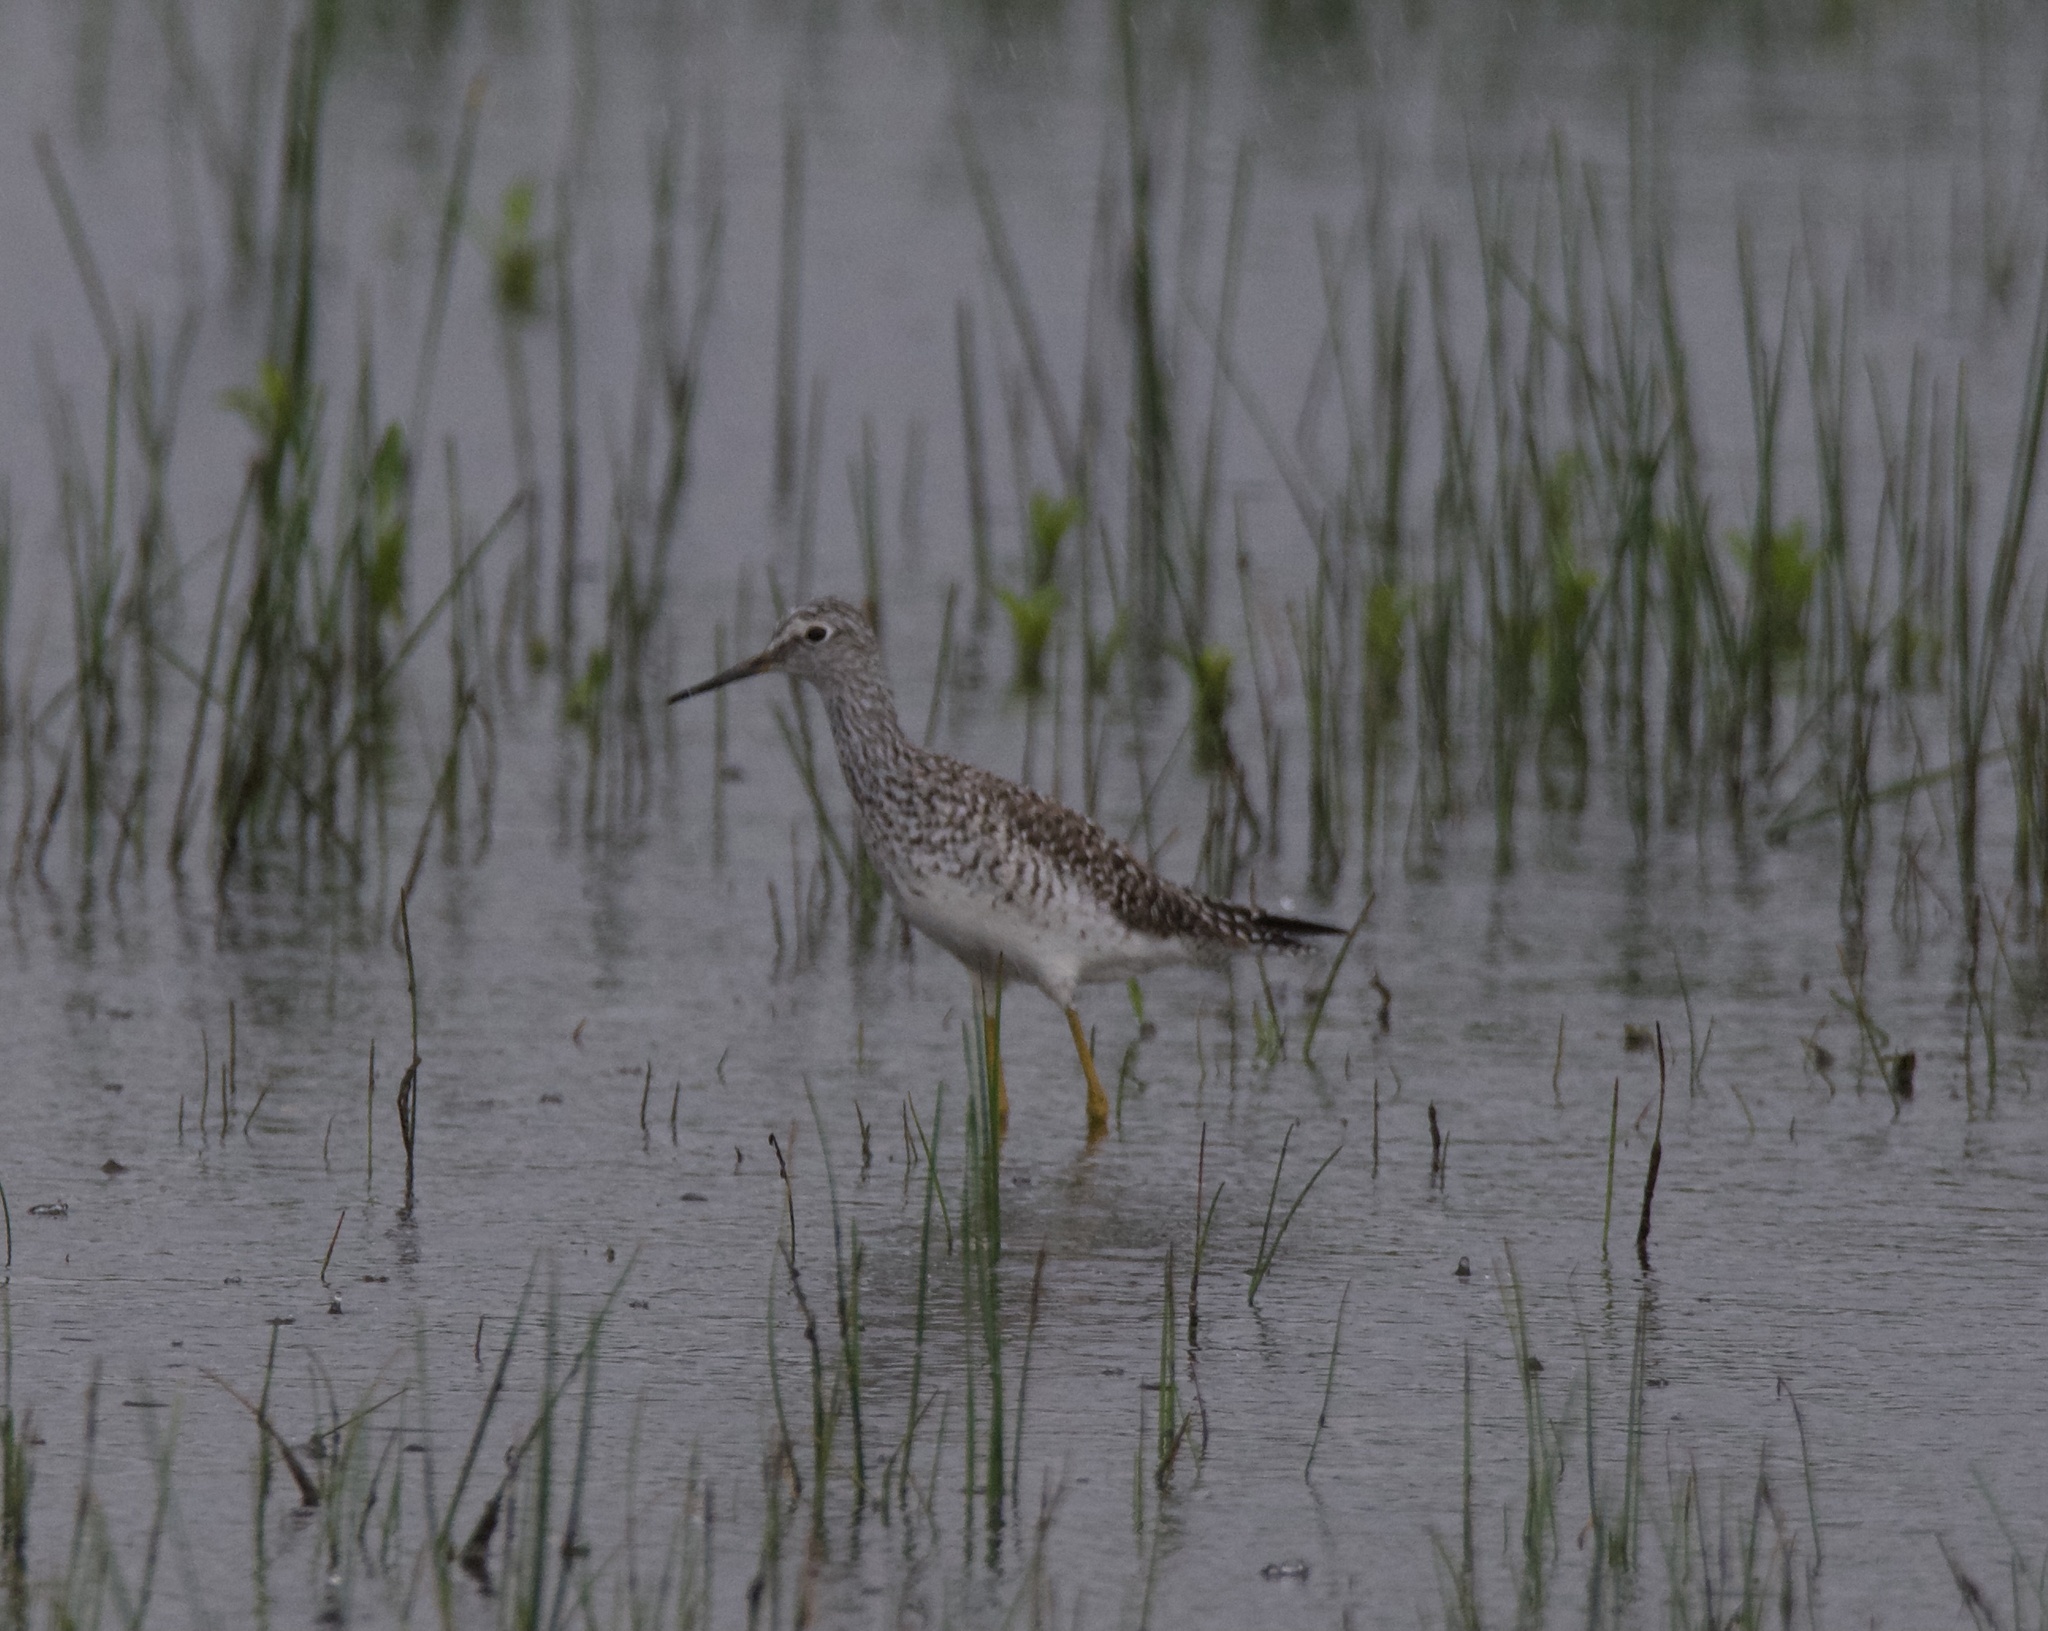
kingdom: Animalia
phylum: Chordata
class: Aves
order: Charadriiformes
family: Scolopacidae
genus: Tringa
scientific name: Tringa flavipes
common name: Lesser yellowlegs
